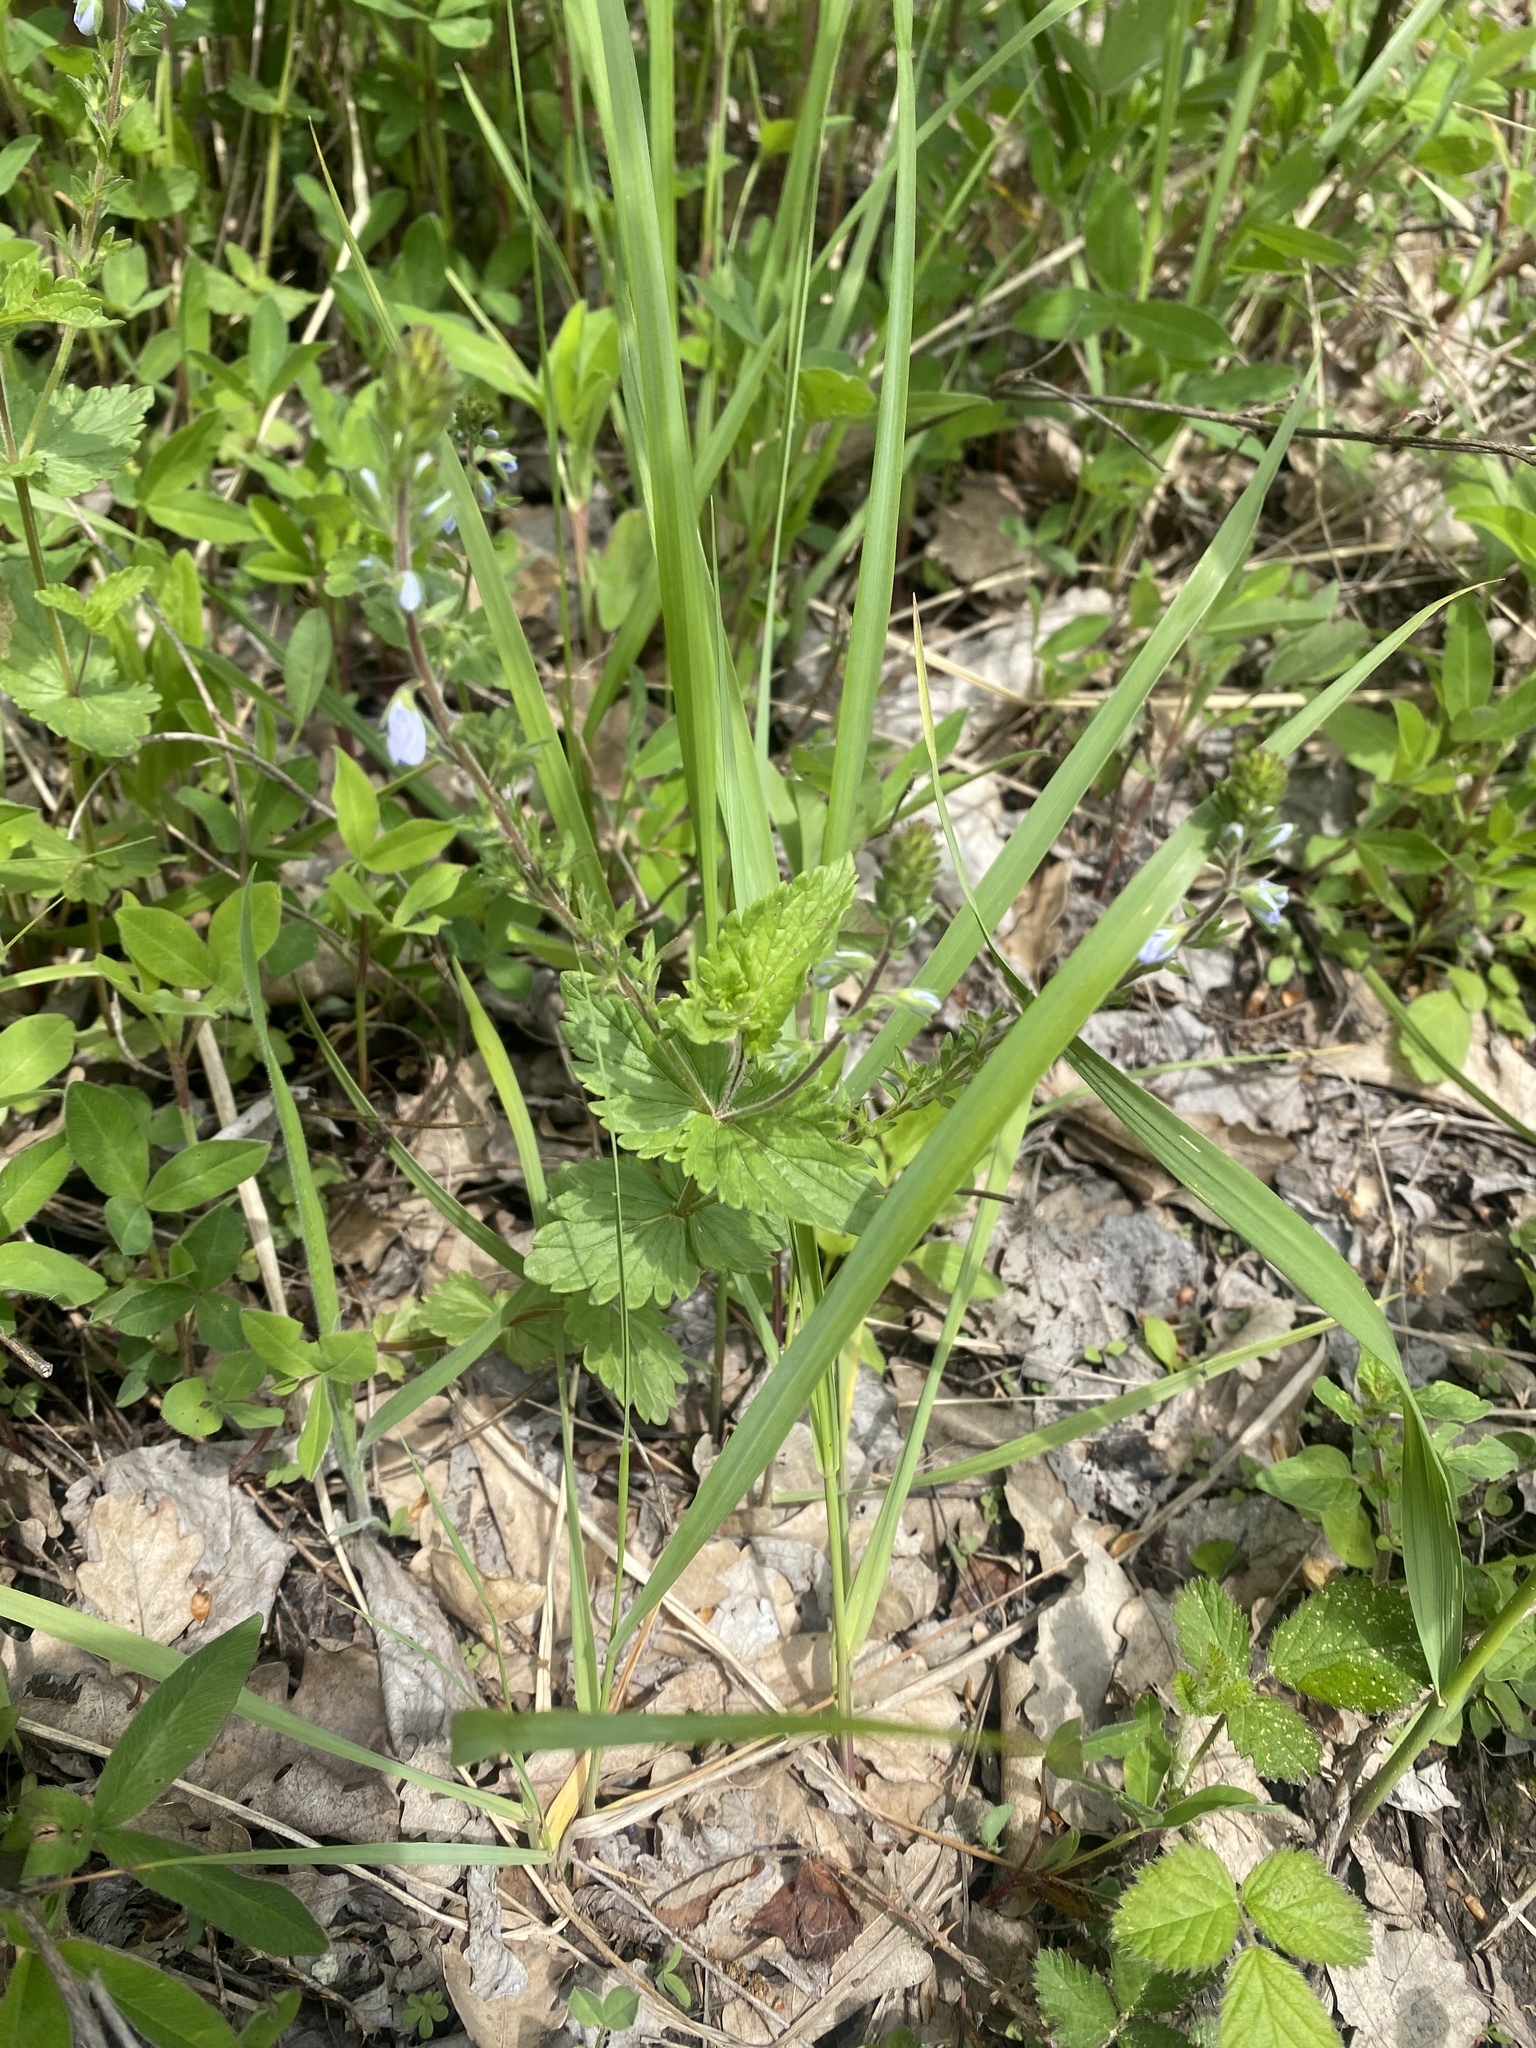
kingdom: Plantae
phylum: Tracheophyta
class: Magnoliopsida
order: Lamiales
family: Plantaginaceae
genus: Veronica
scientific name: Veronica chamaedrys
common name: Germander speedwell
